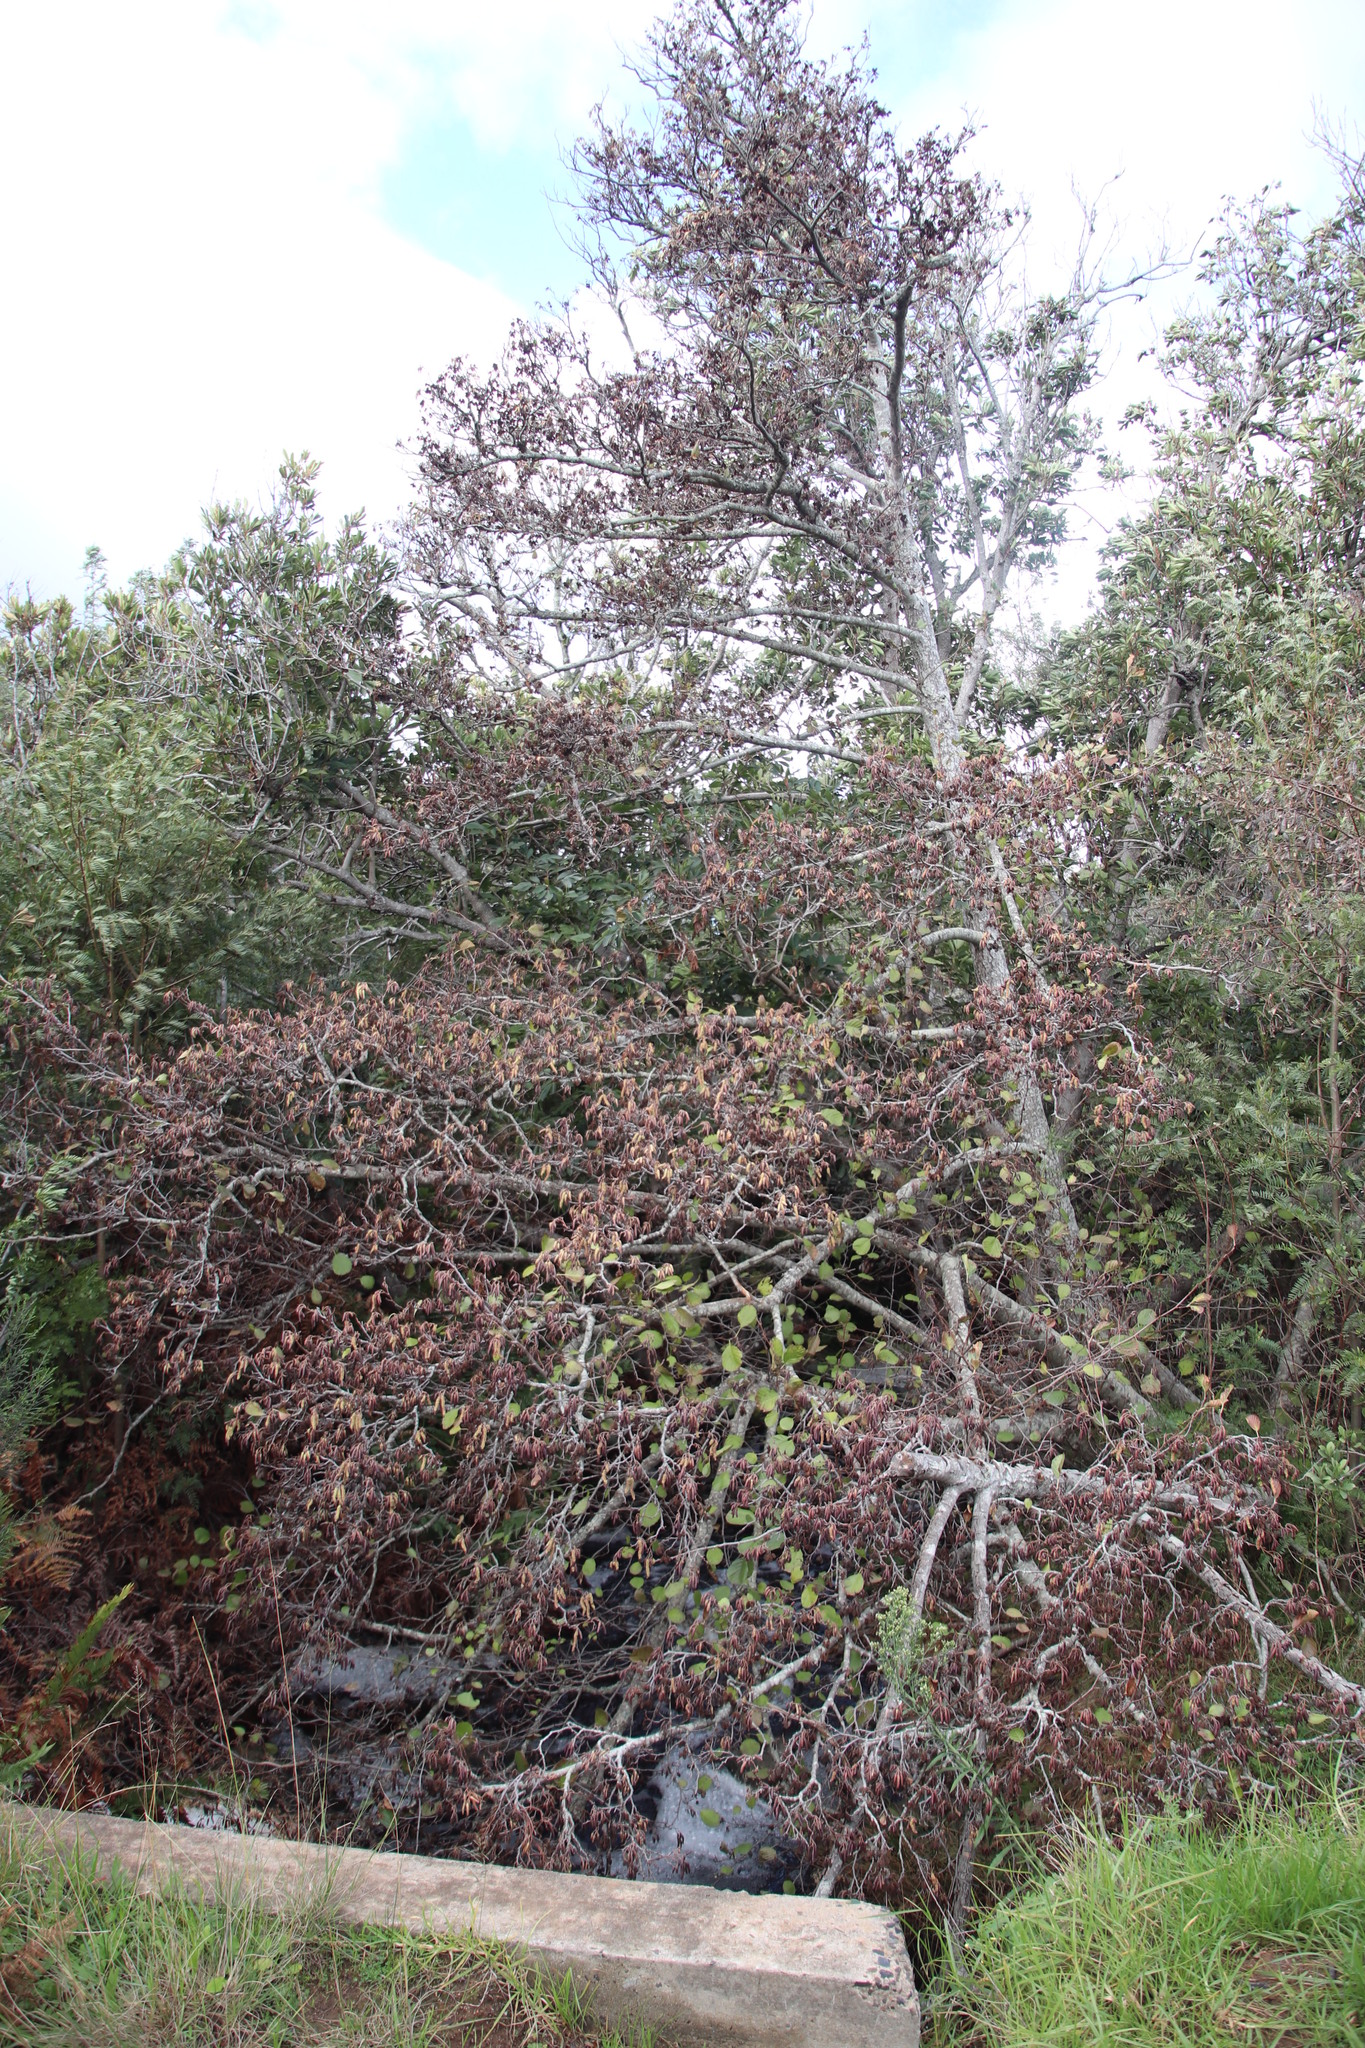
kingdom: Plantae
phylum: Tracheophyta
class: Magnoliopsida
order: Fagales
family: Betulaceae
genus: Alnus
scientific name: Alnus glutinosa
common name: Black alder
